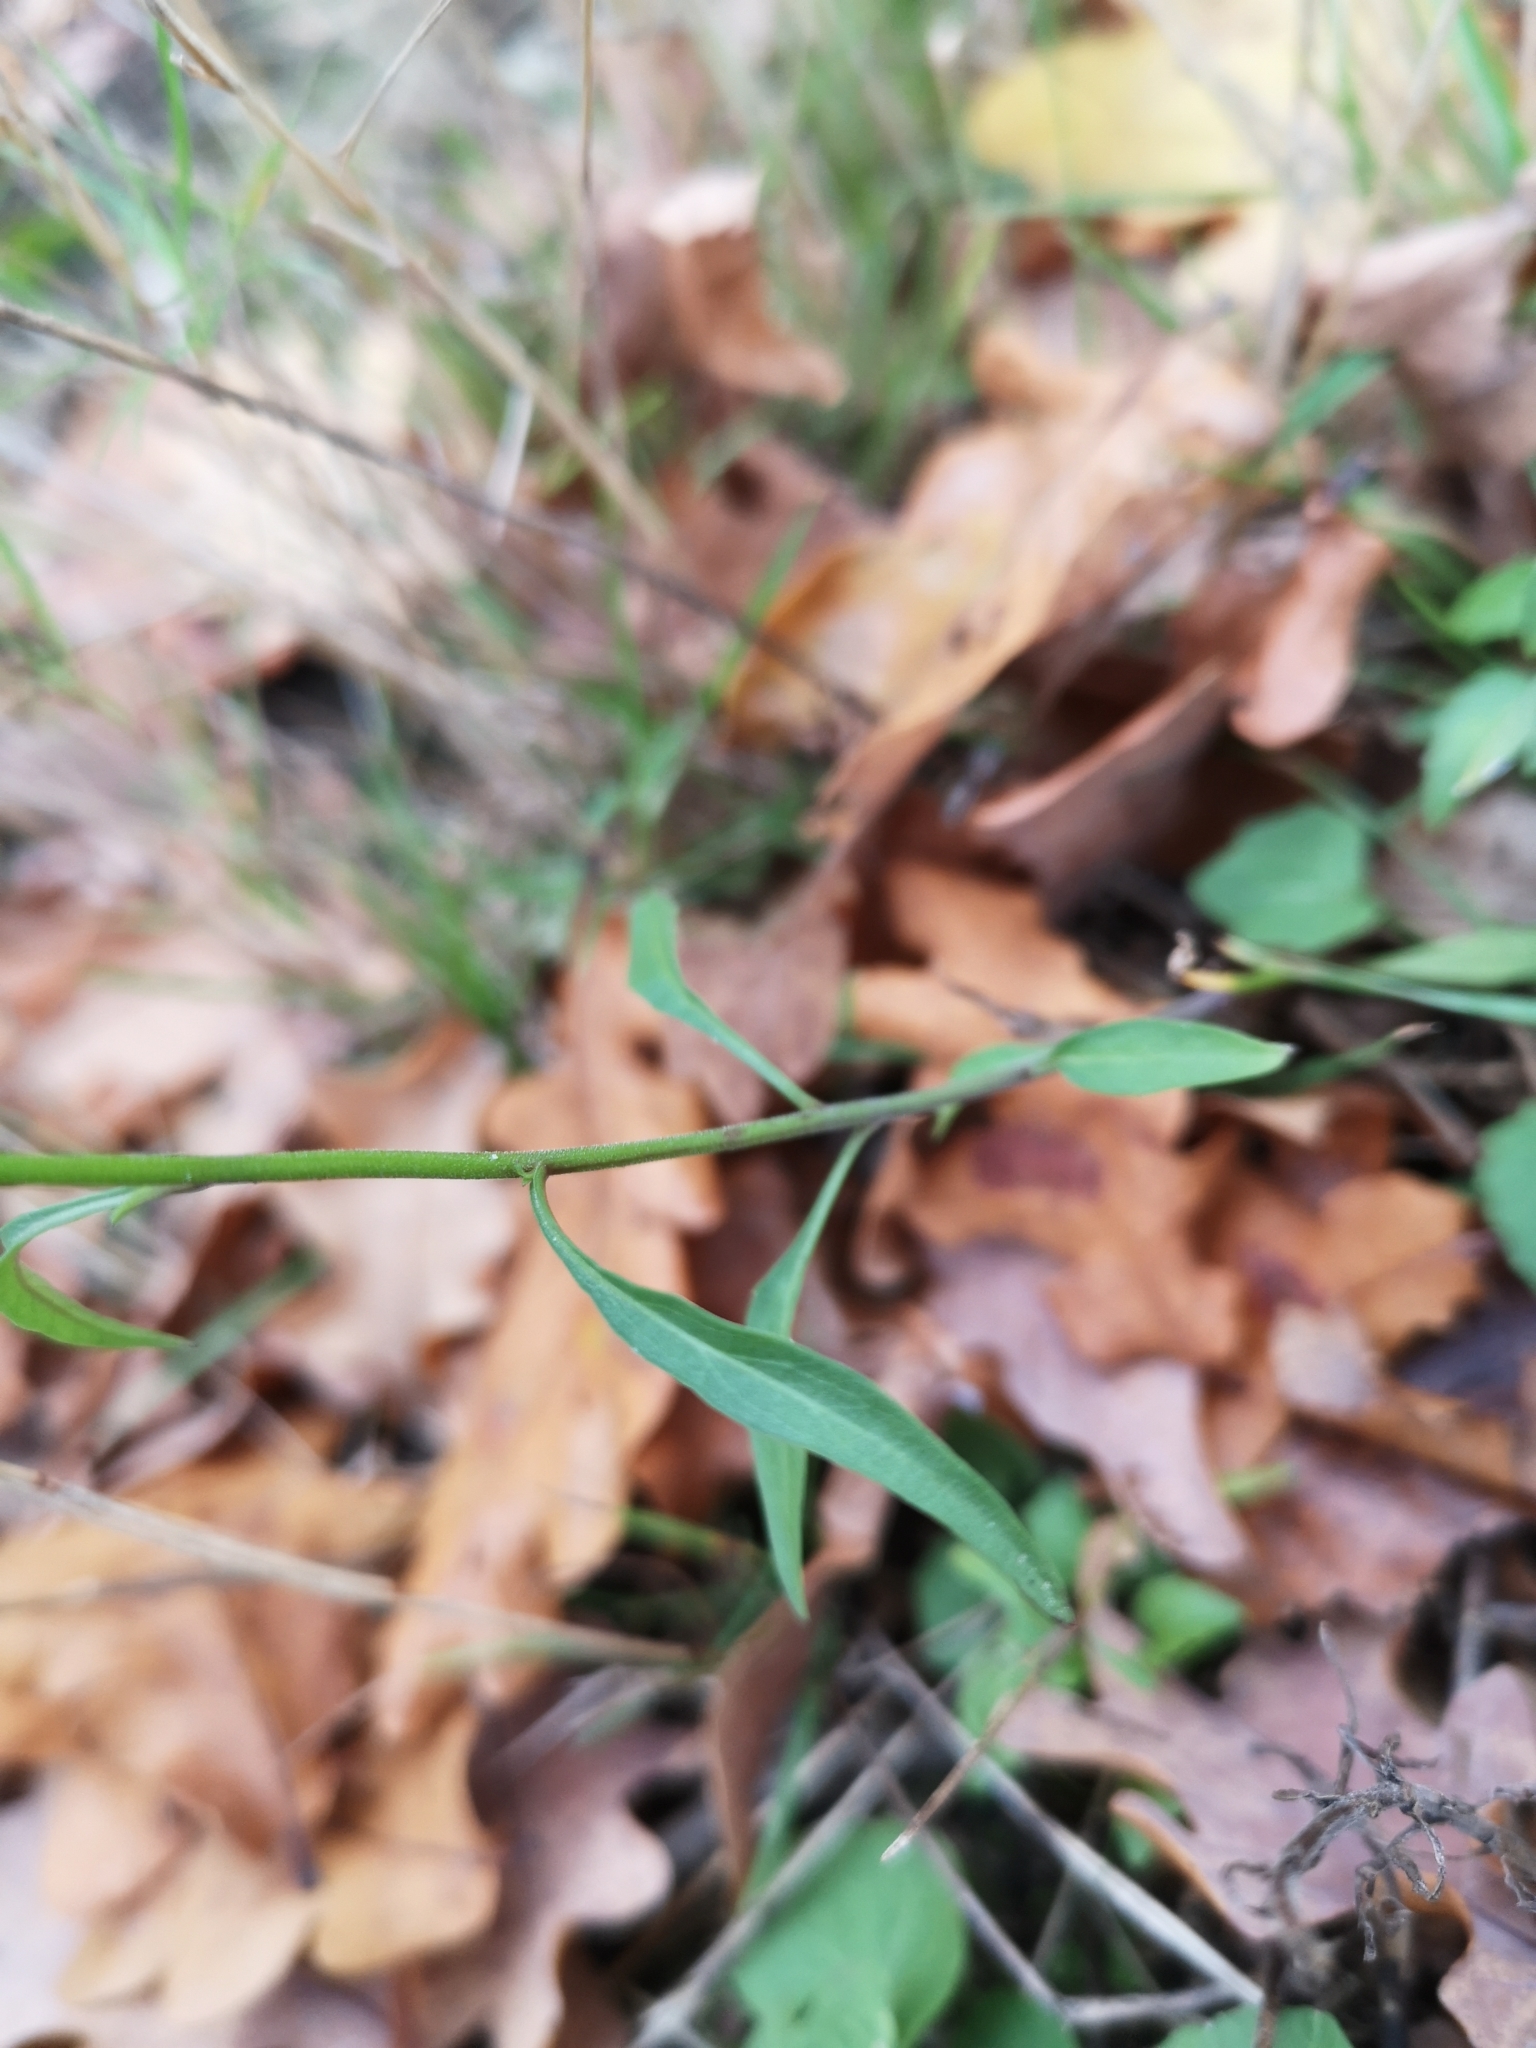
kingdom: Plantae
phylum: Tracheophyta
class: Magnoliopsida
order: Asterales
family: Campanulaceae
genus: Campanula
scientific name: Campanula rotundifolia
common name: Harebell
